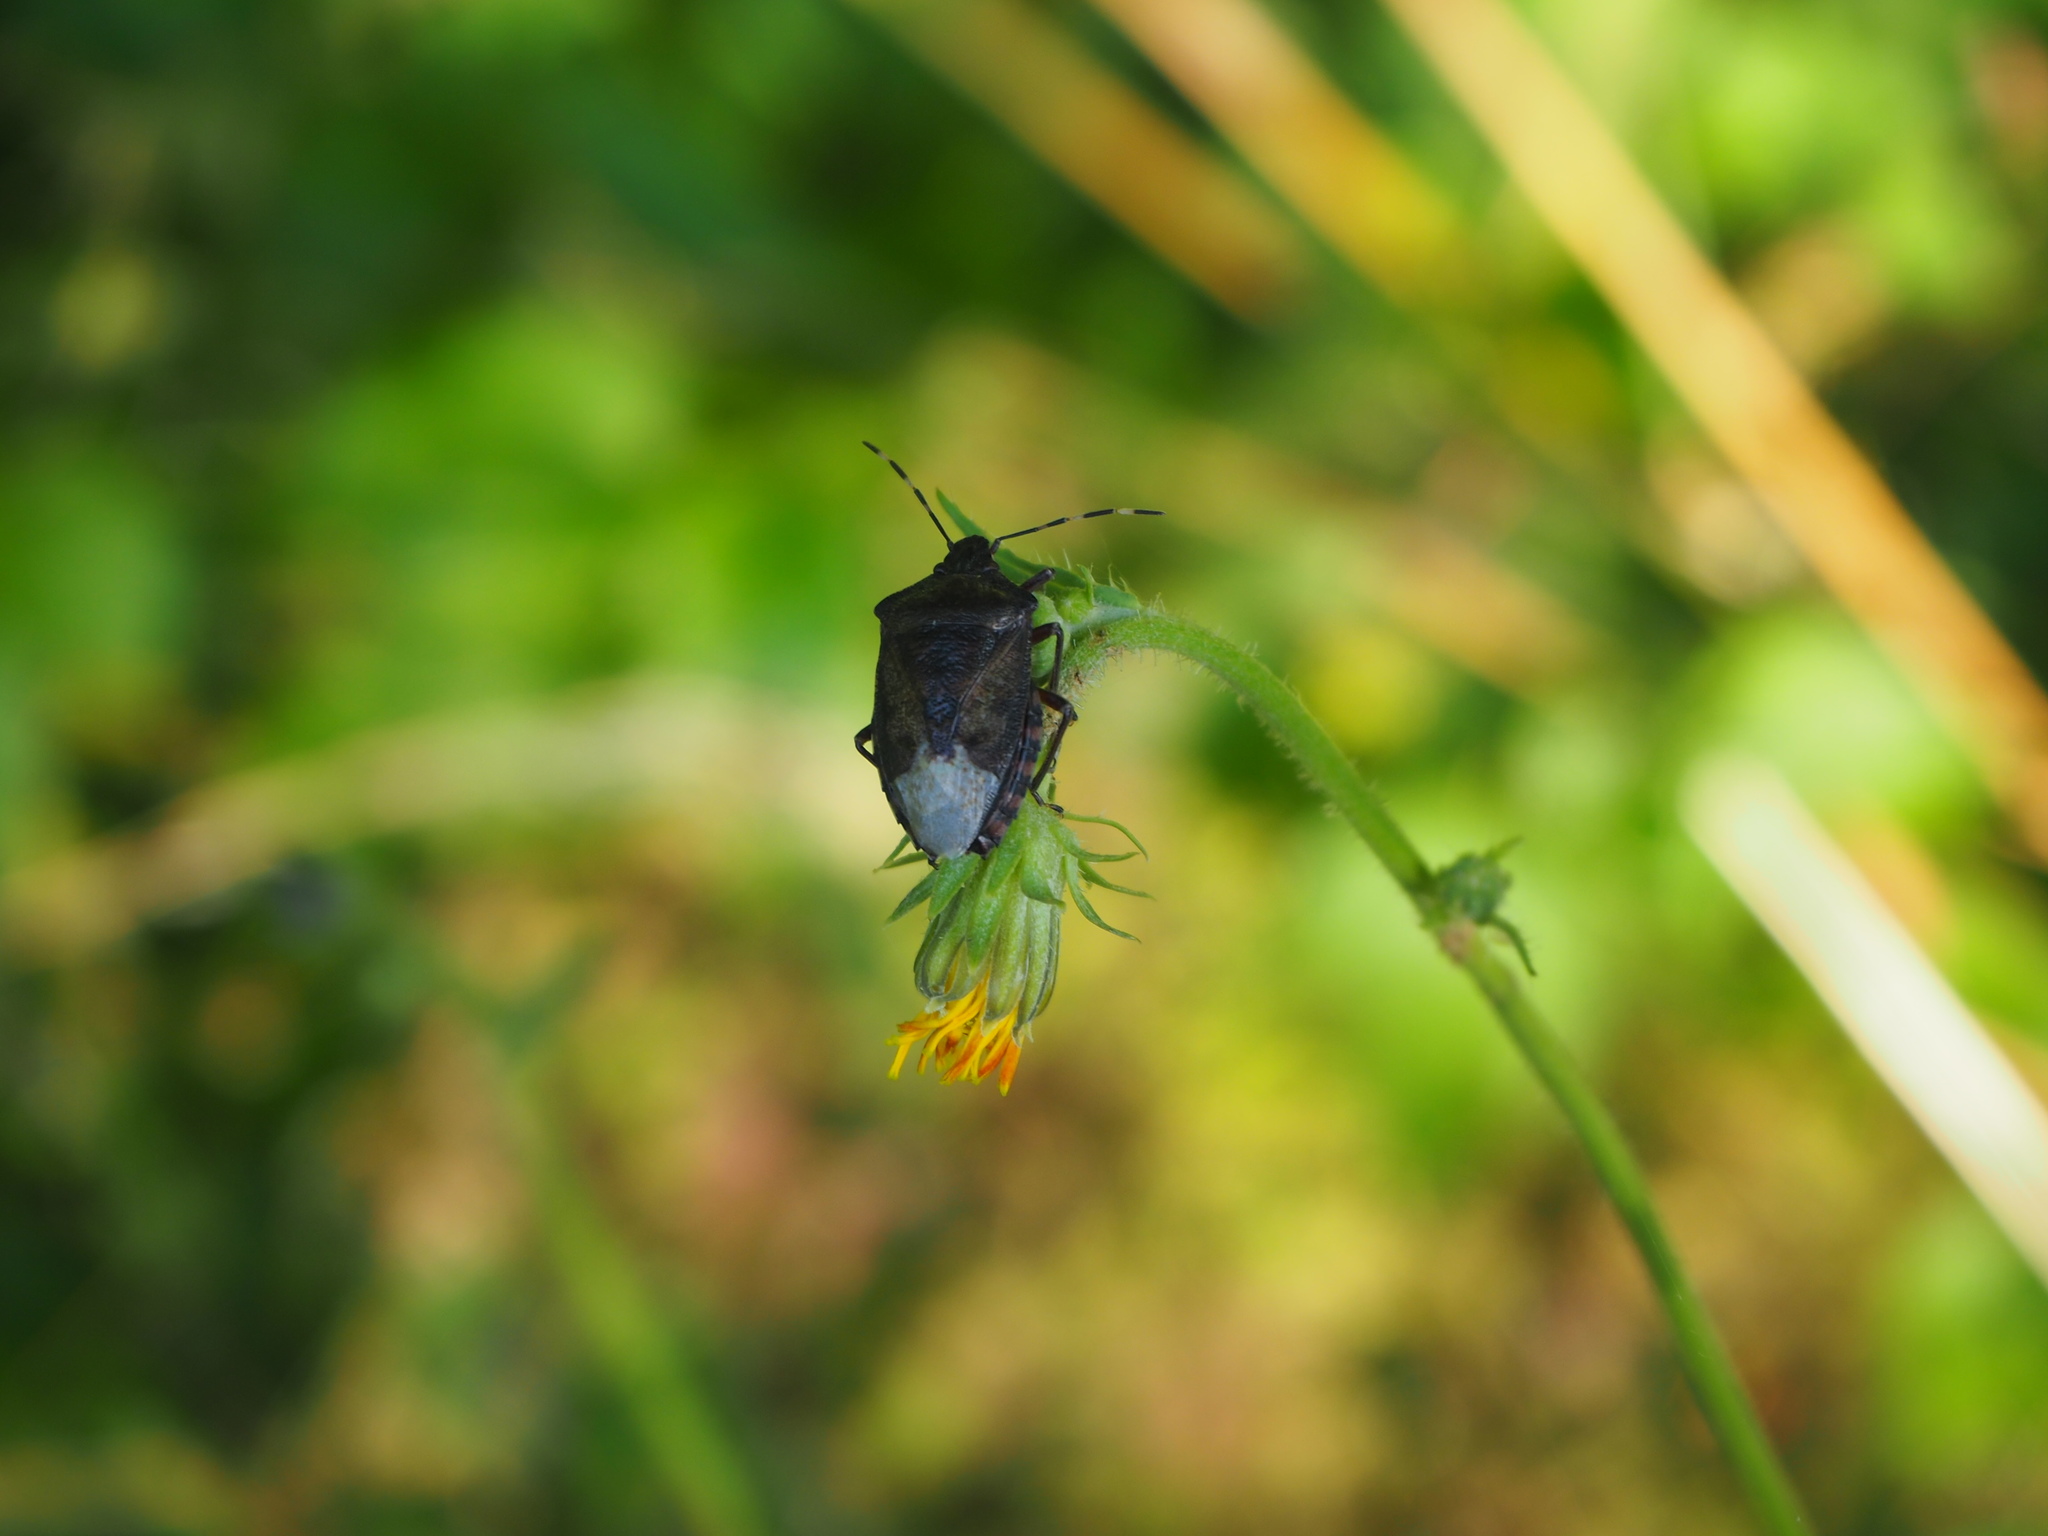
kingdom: Animalia
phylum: Arthropoda
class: Insecta
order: Hemiptera
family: Pentatomidae
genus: Rhaphigaster
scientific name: Rhaphigaster nebulosa
